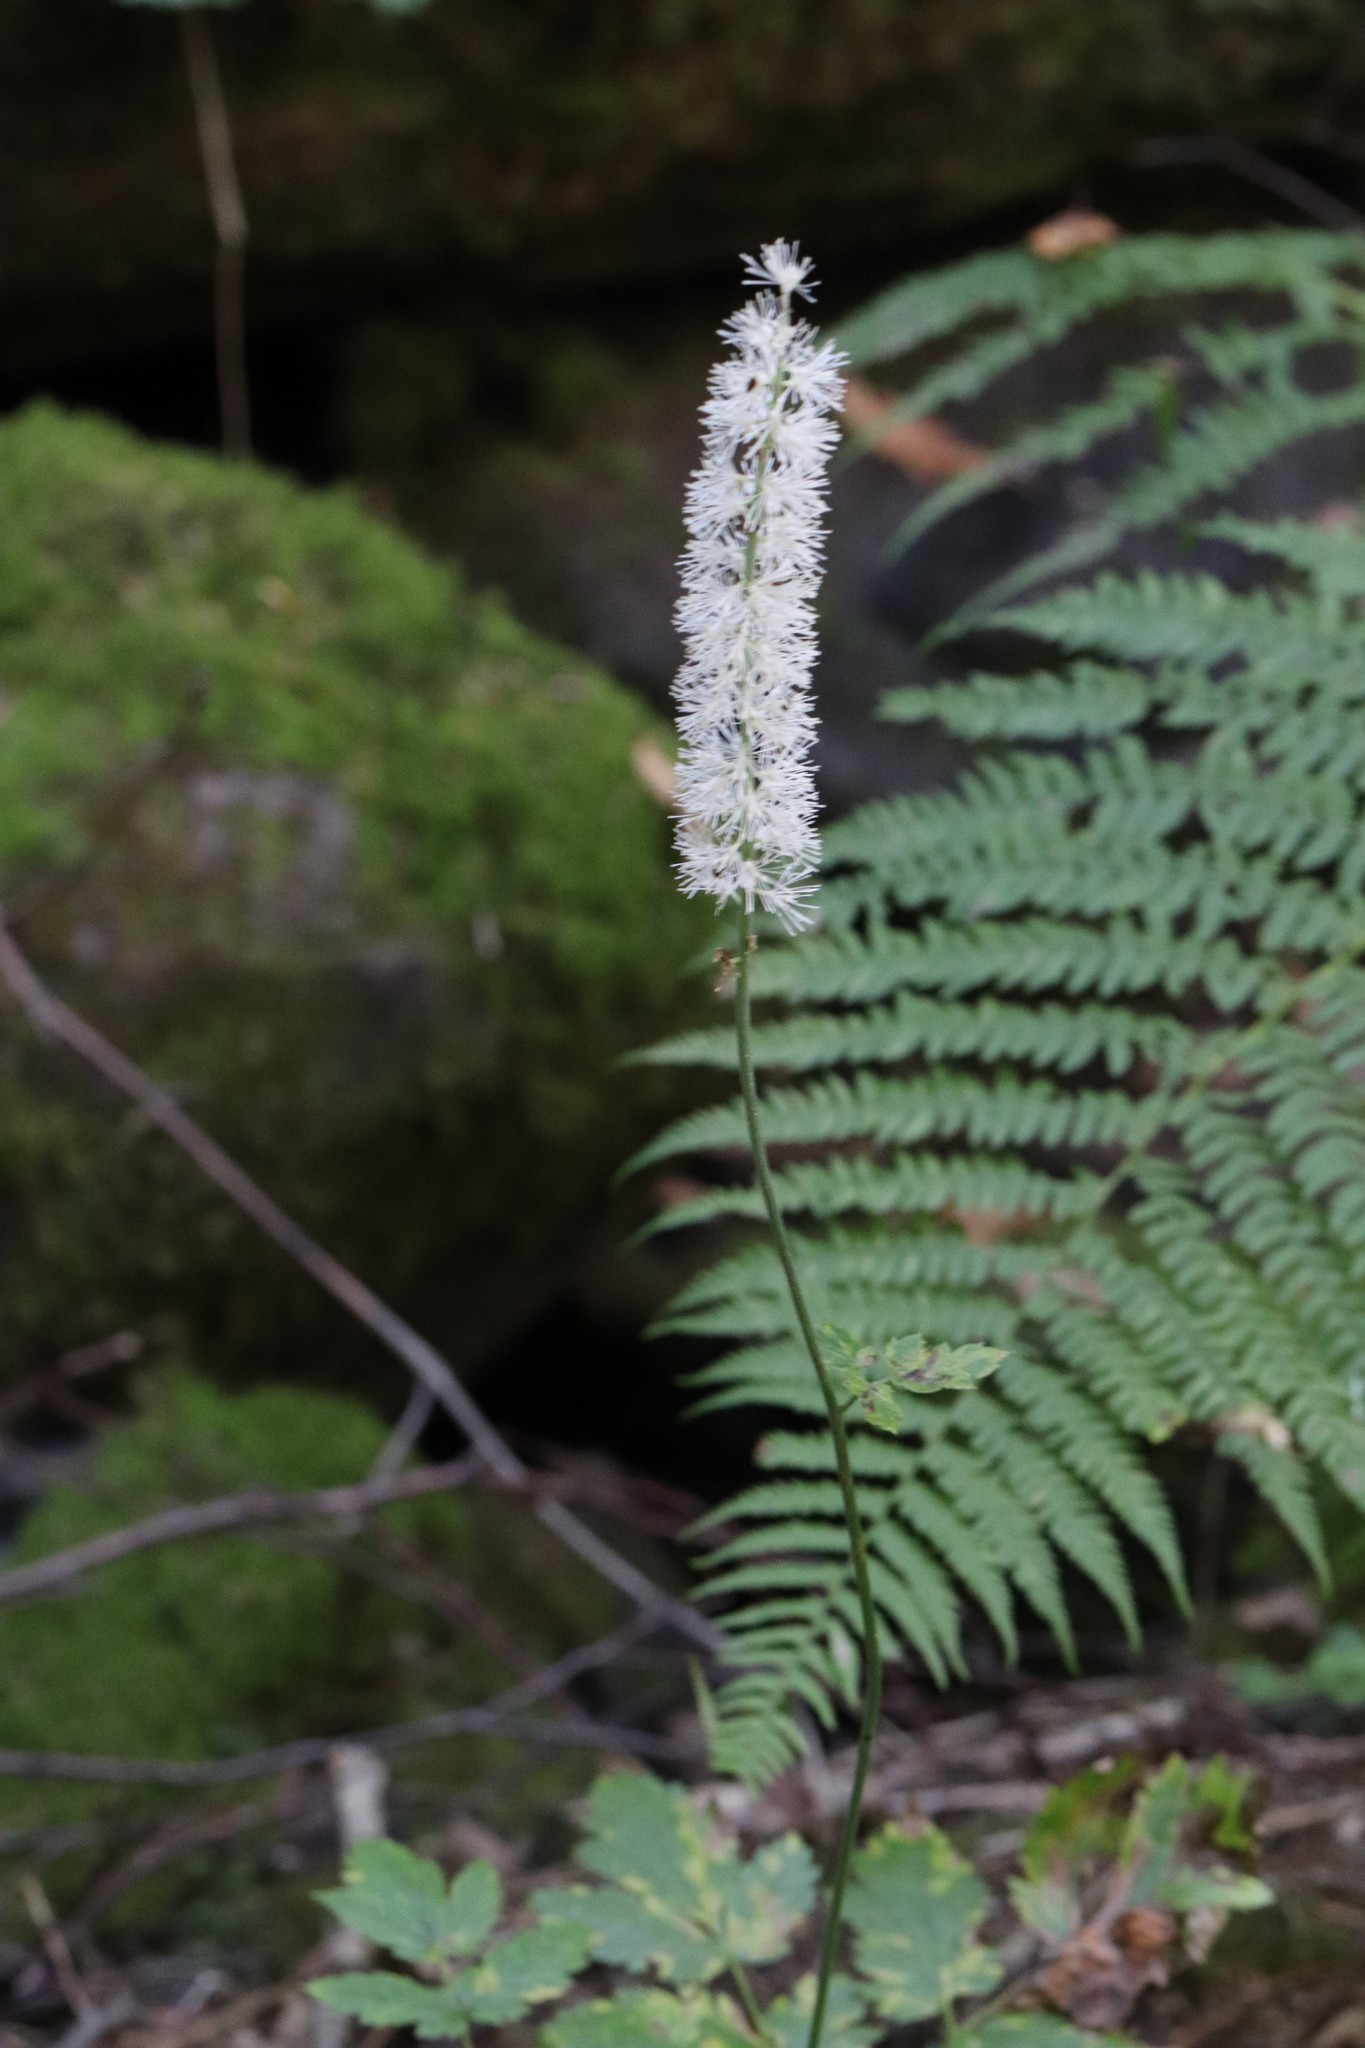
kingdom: Plantae
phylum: Tracheophyta
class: Magnoliopsida
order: Ranunculales
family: Ranunculaceae
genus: Actaea
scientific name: Actaea simplex
